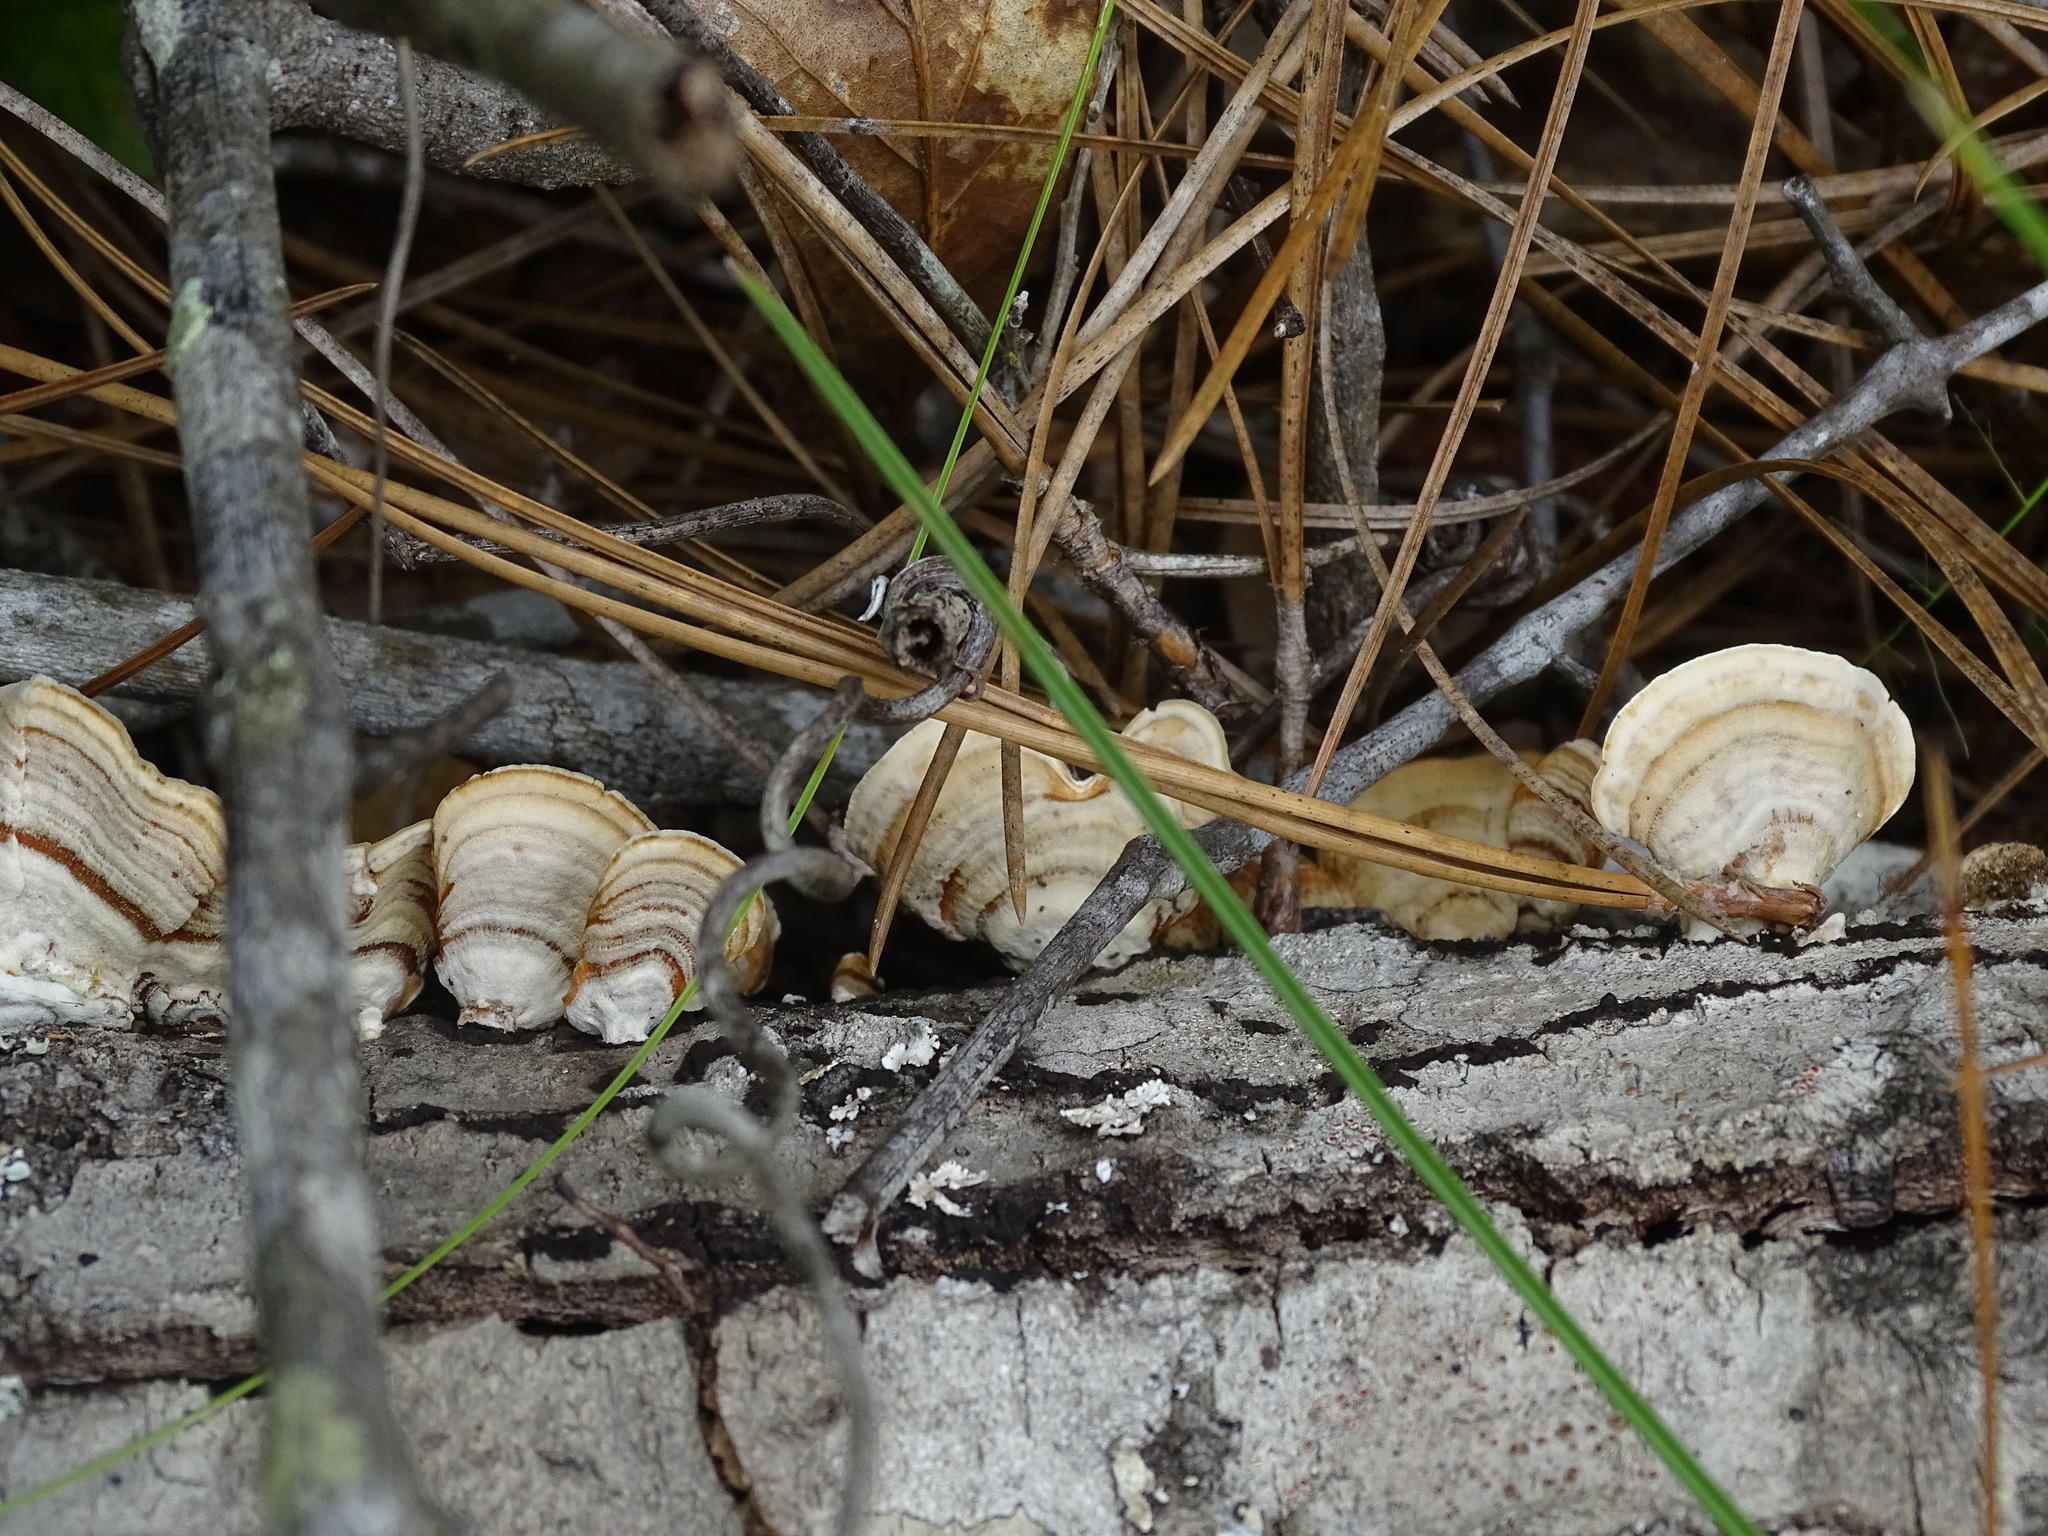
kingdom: Fungi
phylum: Basidiomycota
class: Agaricomycetes
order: Russulales
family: Stereaceae
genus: Stereum
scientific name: Stereum ostrea
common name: False turkeytail
